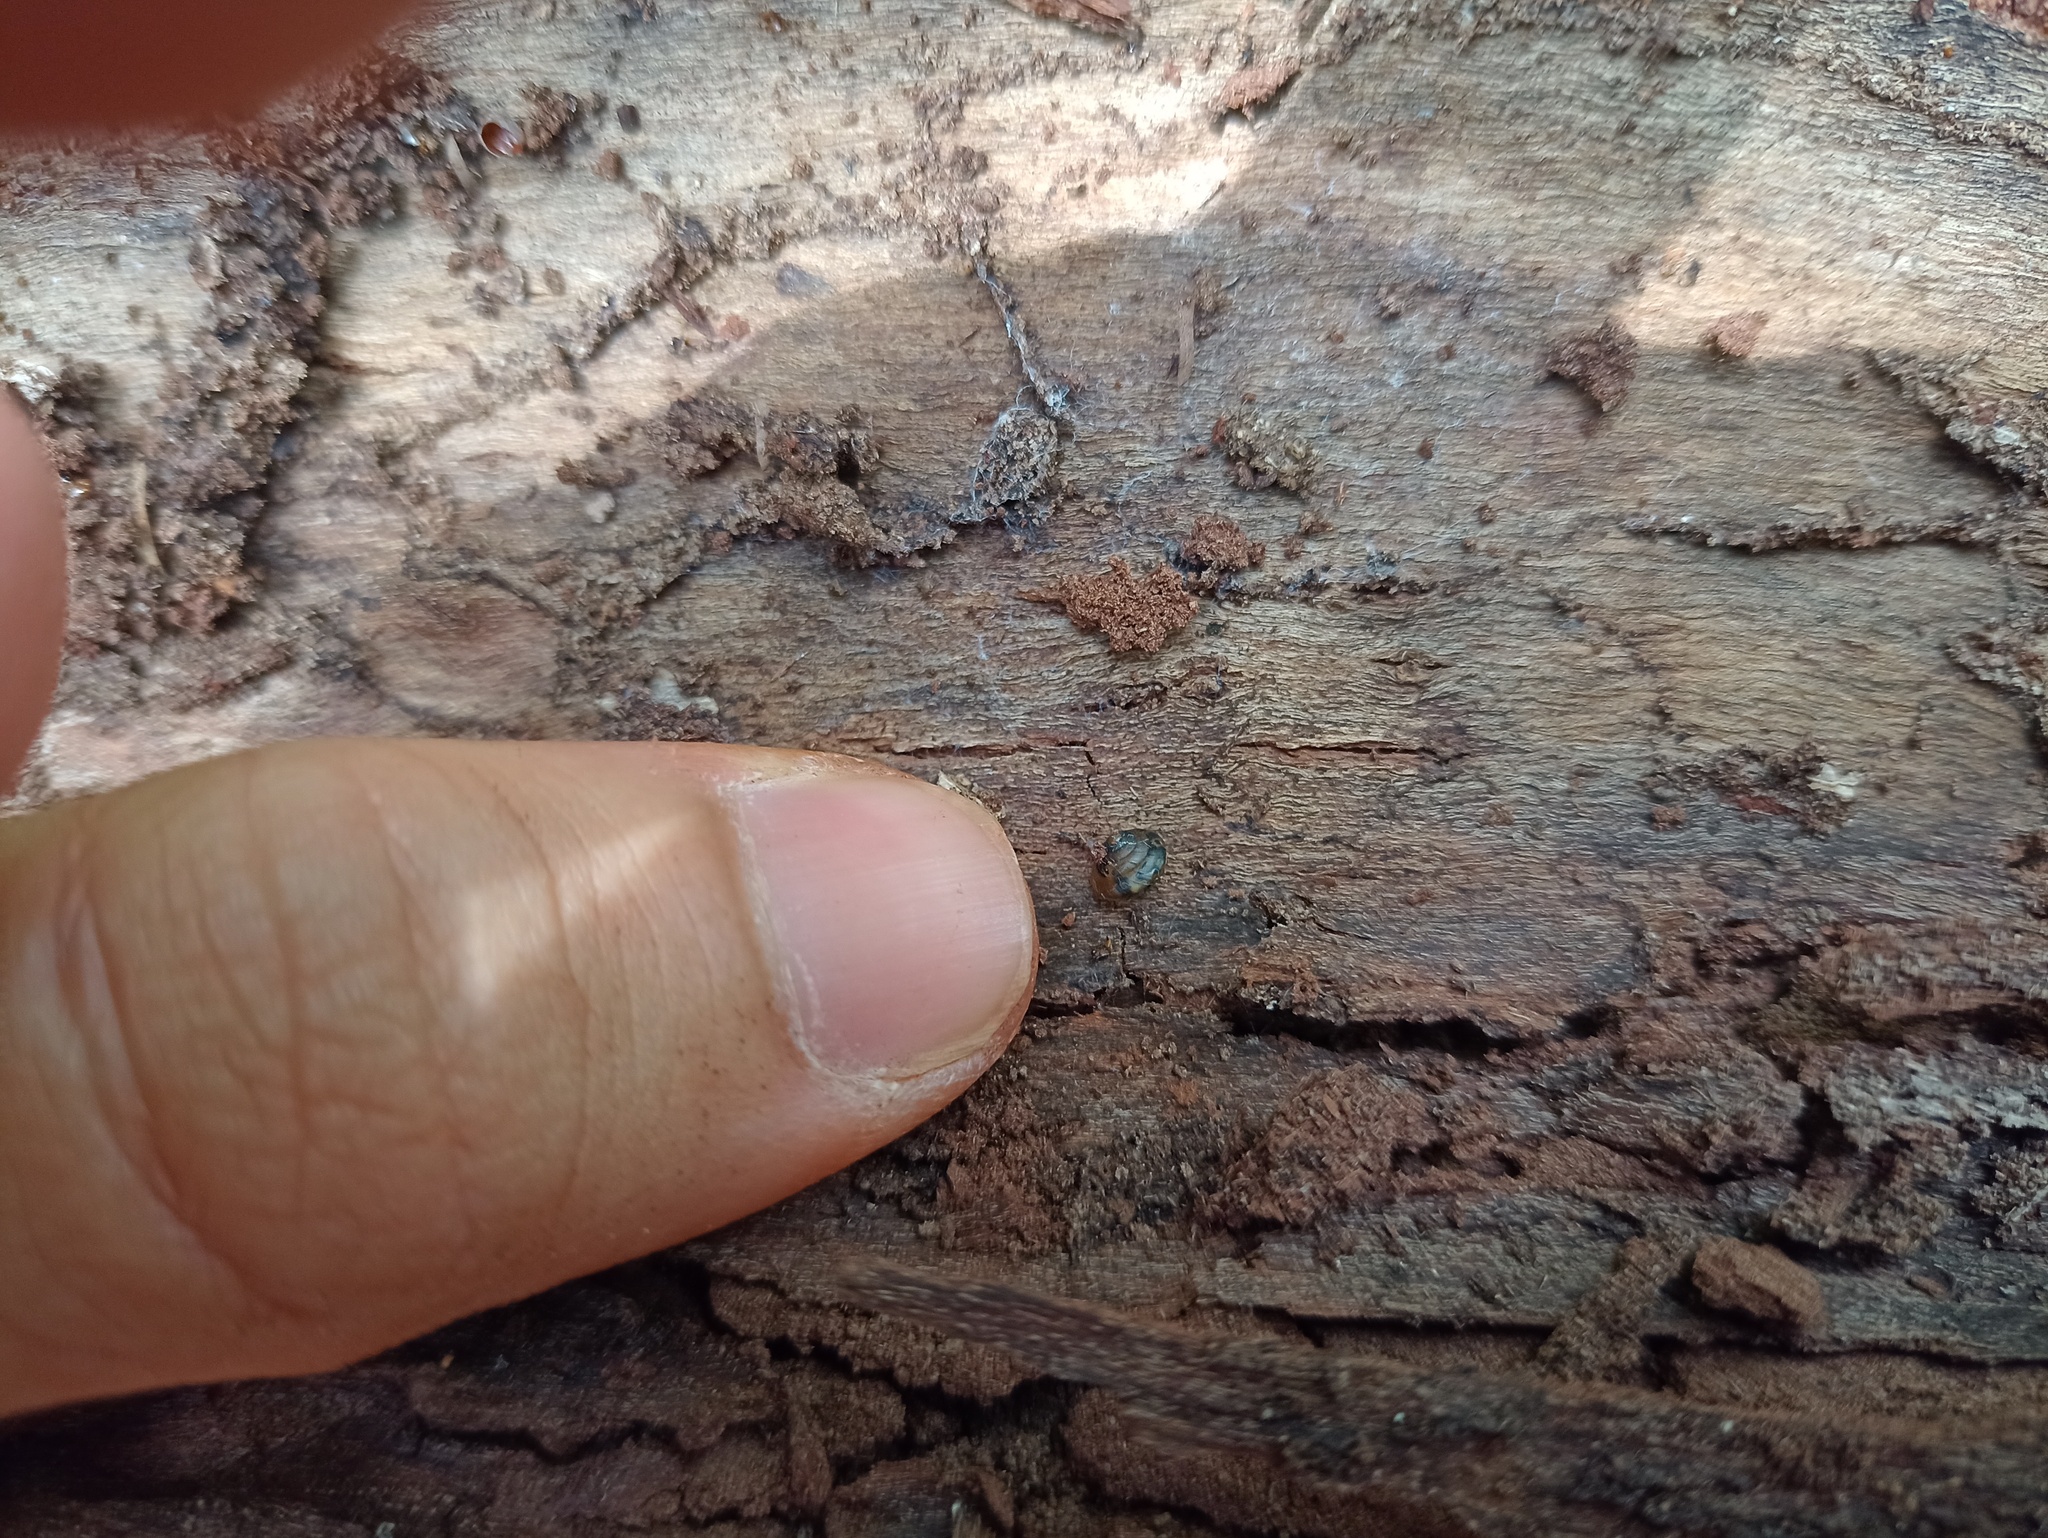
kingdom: Animalia
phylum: Mollusca
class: Gastropoda
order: Stylommatophora
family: Euconulidae
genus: Habroconus
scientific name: Habroconus semenlini
